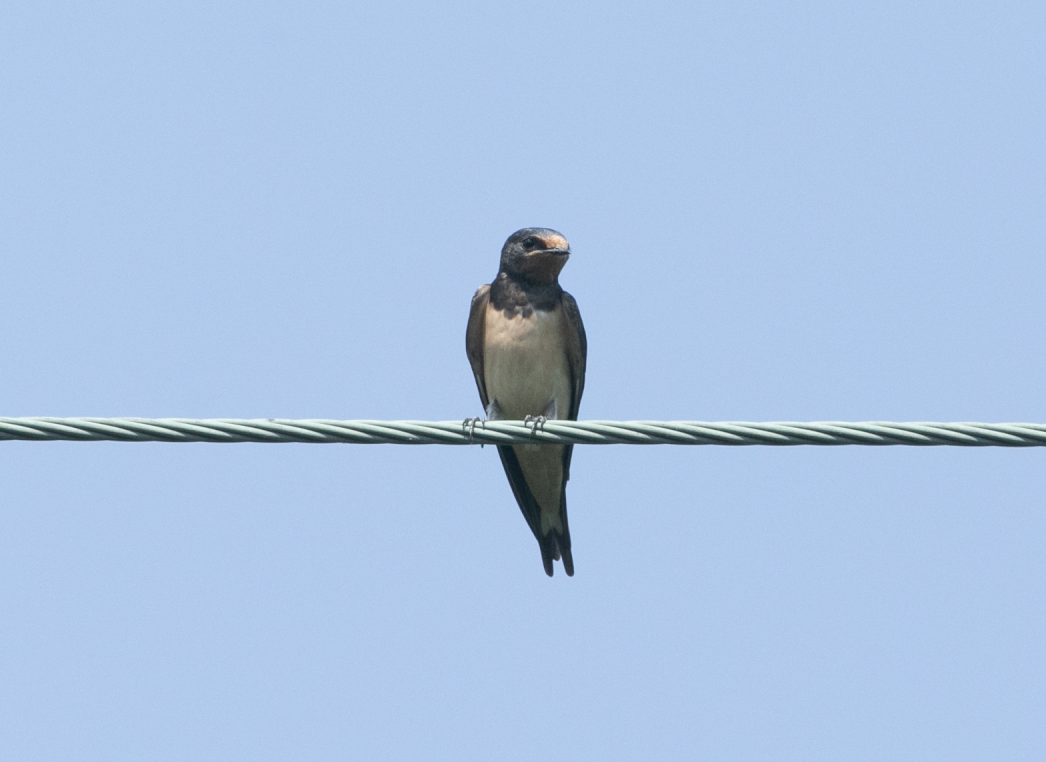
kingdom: Animalia
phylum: Chordata
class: Aves
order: Passeriformes
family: Hirundinidae
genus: Hirundo
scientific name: Hirundo rustica
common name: Barn swallow
